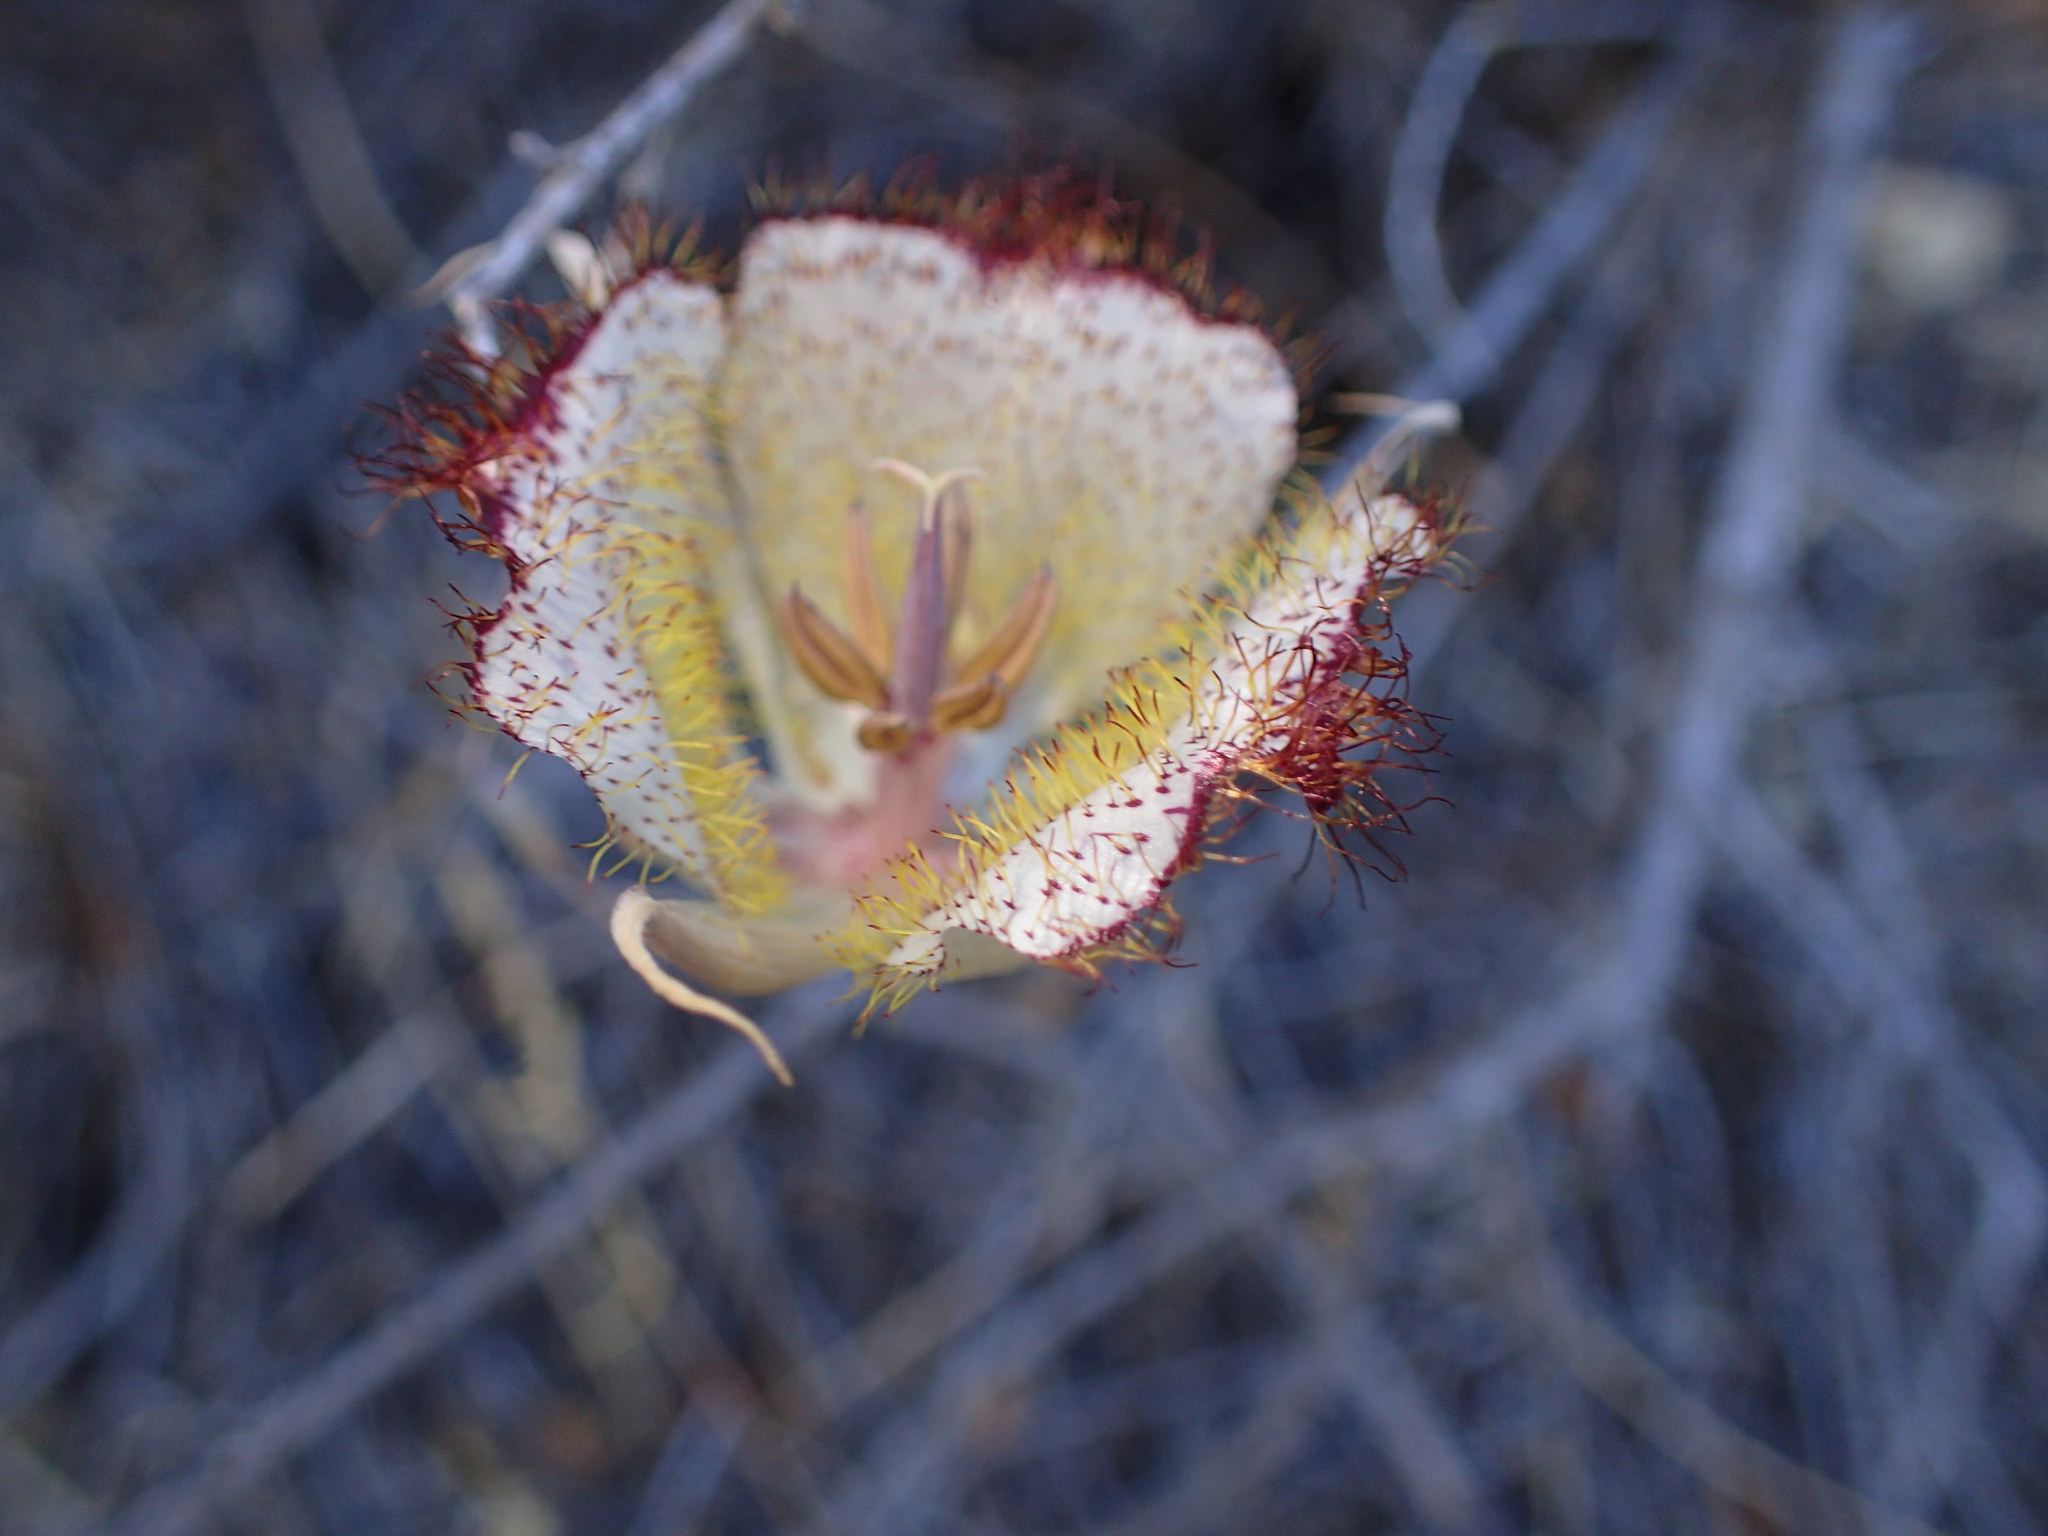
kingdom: Plantae
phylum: Tracheophyta
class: Liliopsida
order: Liliales
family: Liliaceae
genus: Calochortus
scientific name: Calochortus fimbriatus
